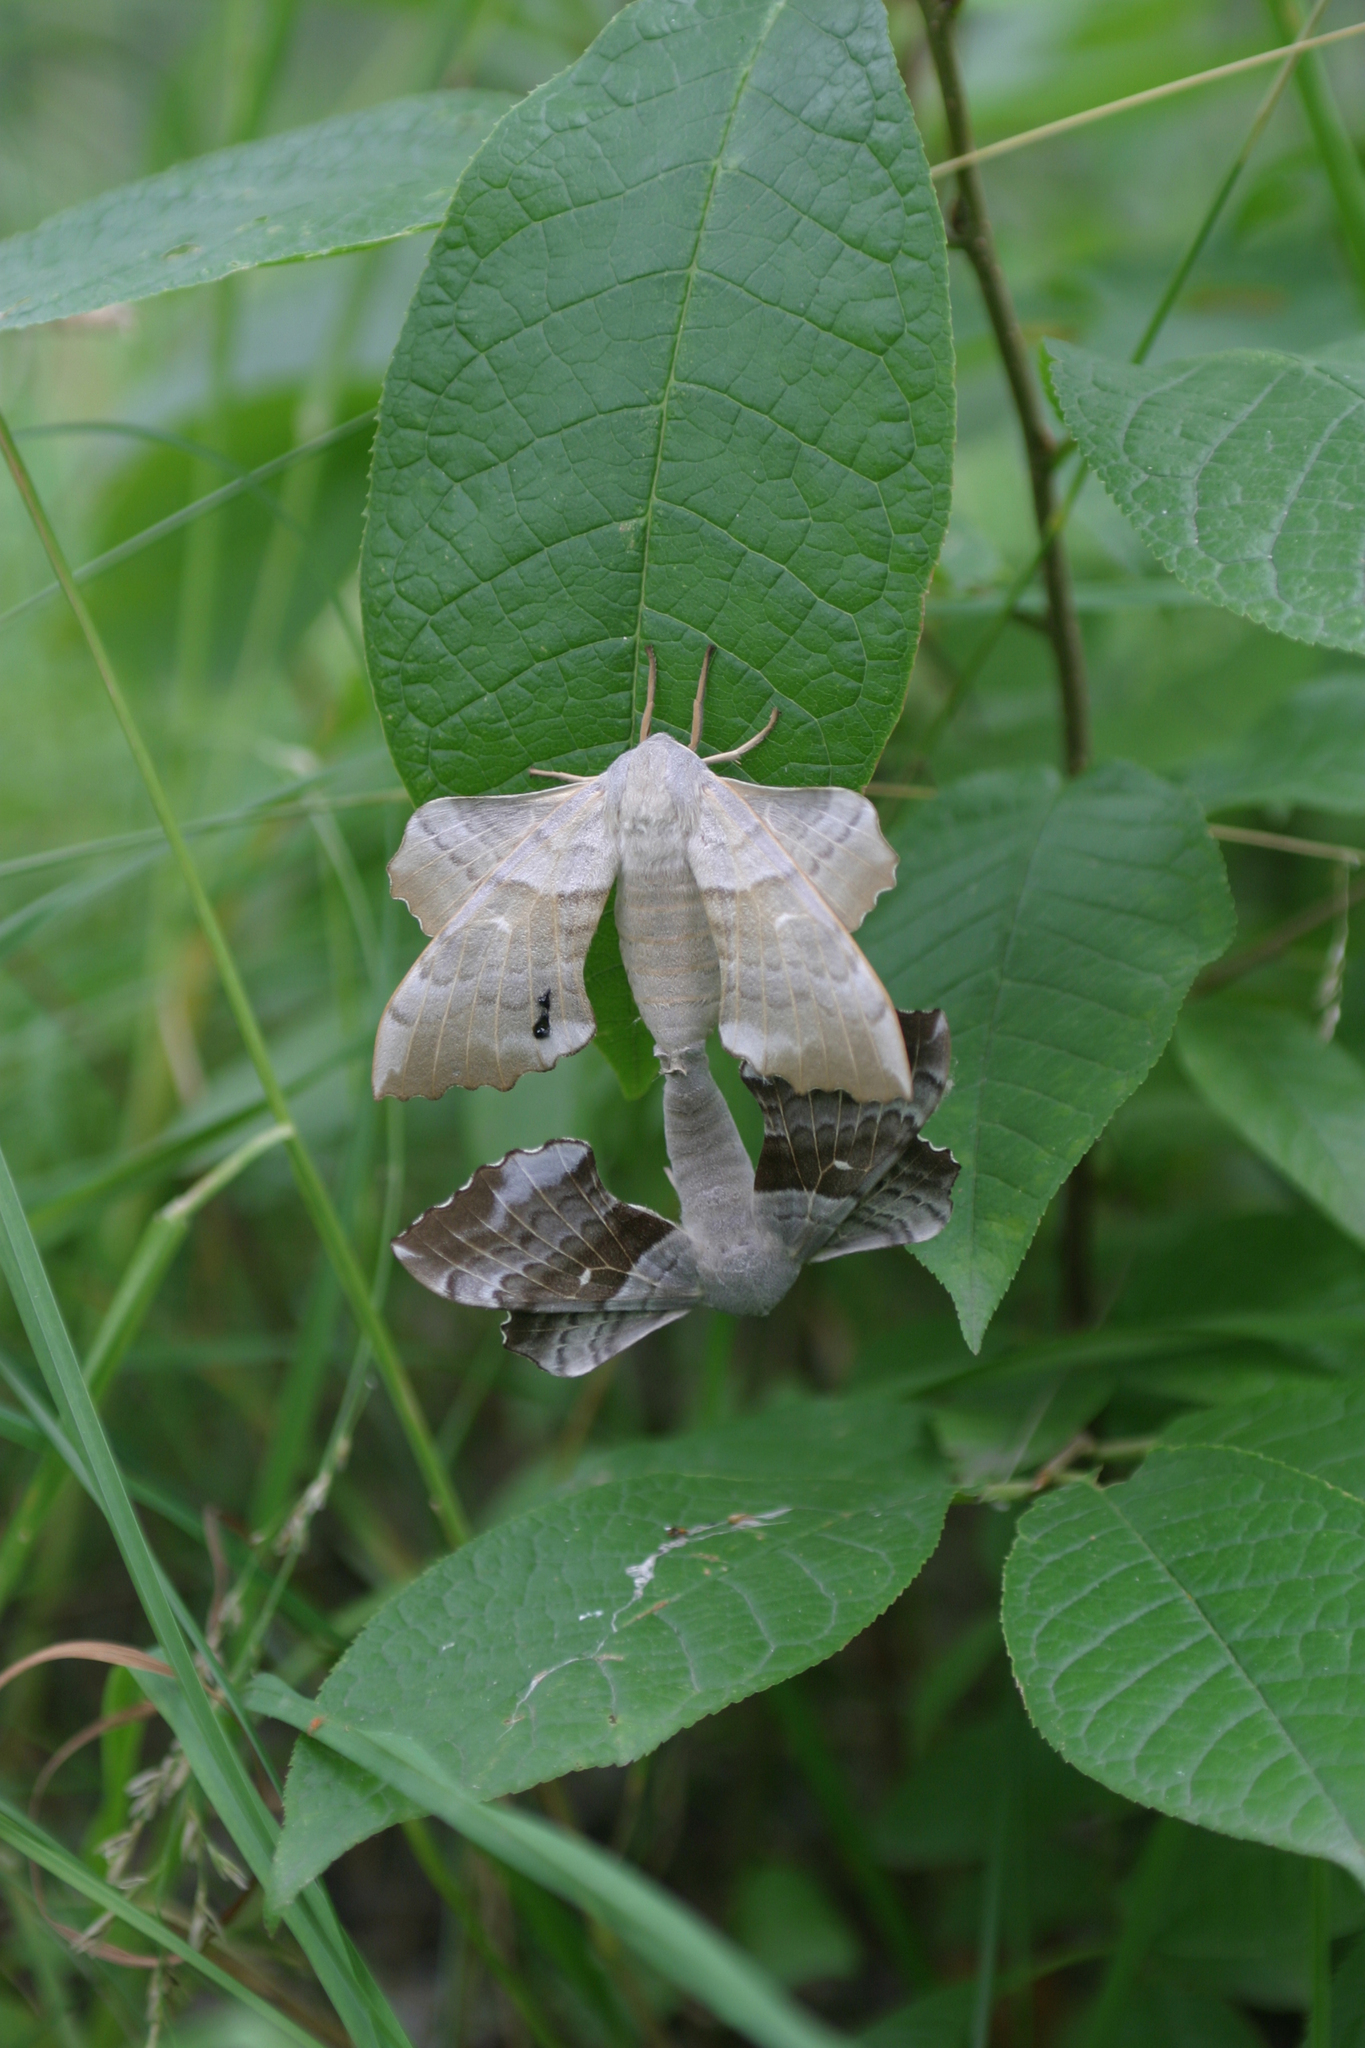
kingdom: Plantae
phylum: Tracheophyta
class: Magnoliopsida
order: Rosales
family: Rosaceae
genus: Prunus
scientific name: Prunus padus
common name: Bird cherry
